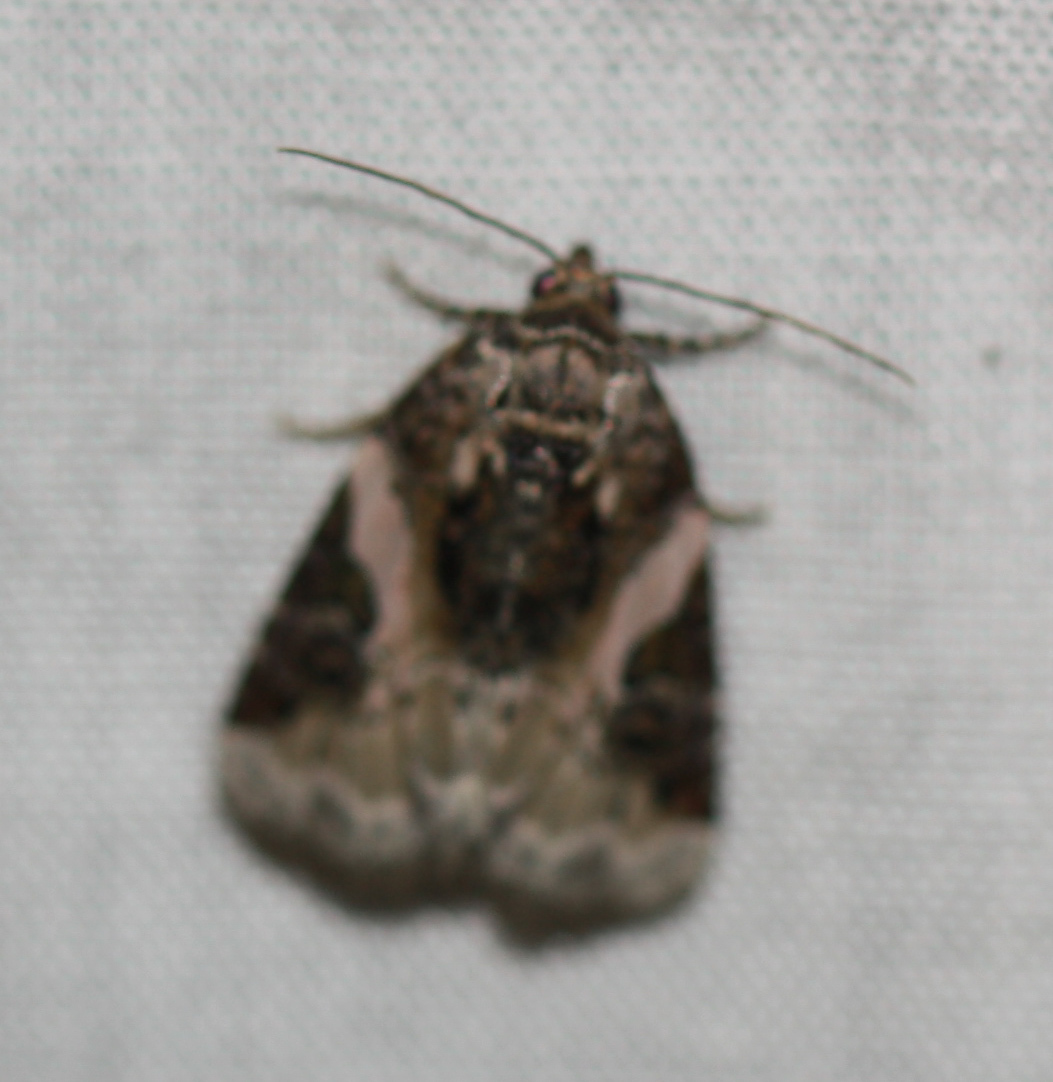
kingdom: Animalia
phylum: Arthropoda
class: Insecta
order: Lepidoptera
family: Noctuidae
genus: Pseudeustrotia
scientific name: Pseudeustrotia carneola
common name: Pink-barred lithacodia moth
